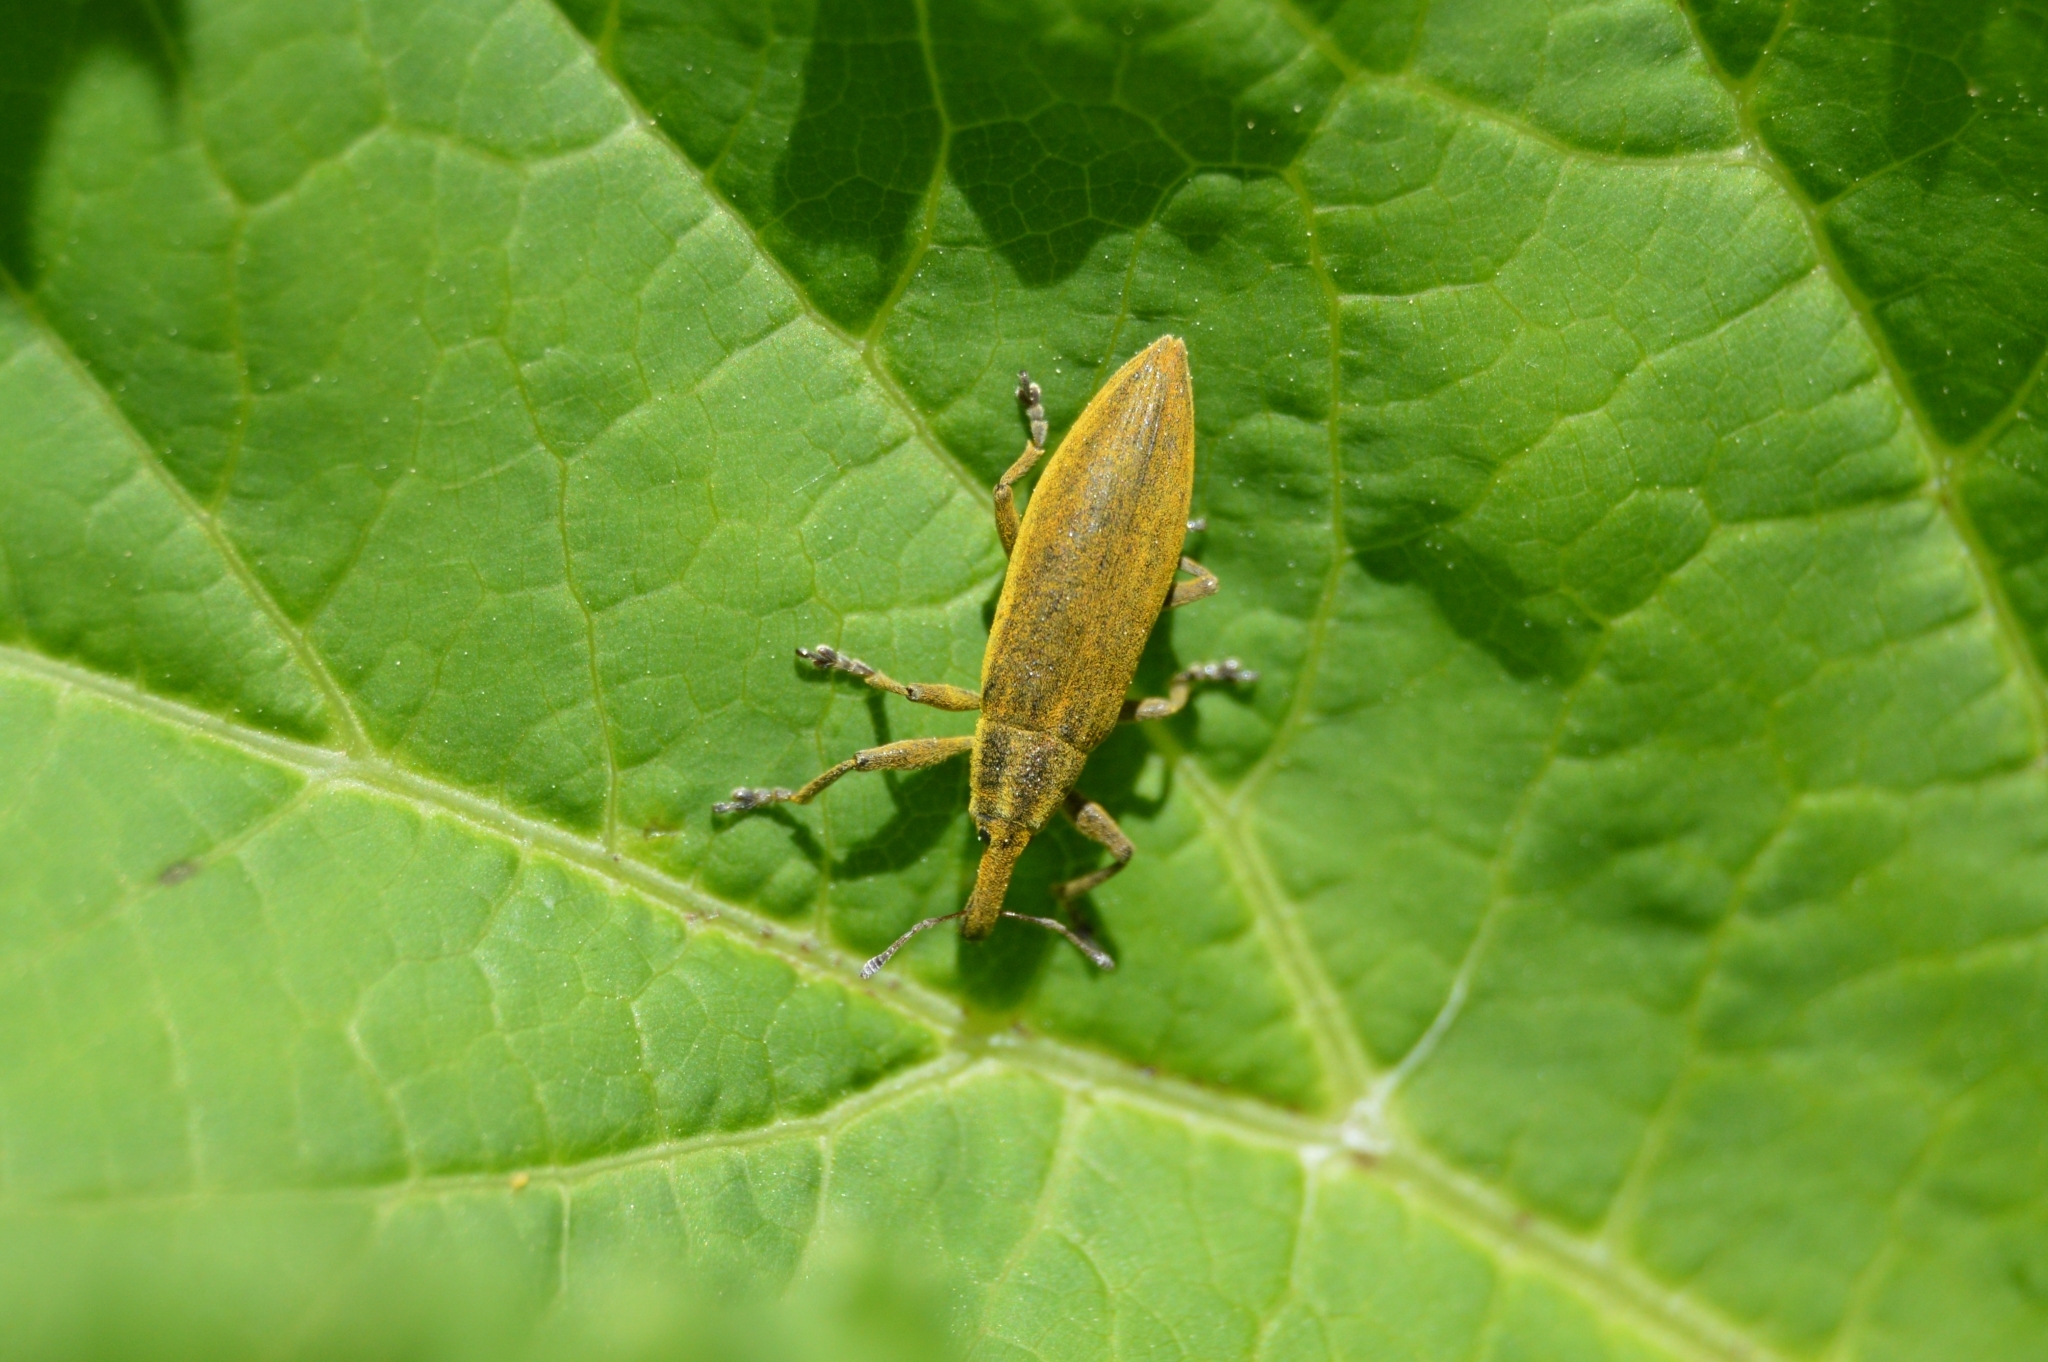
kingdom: Animalia
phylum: Arthropoda
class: Insecta
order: Coleoptera
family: Curculionidae
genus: Lixus
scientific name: Lixus iridis
